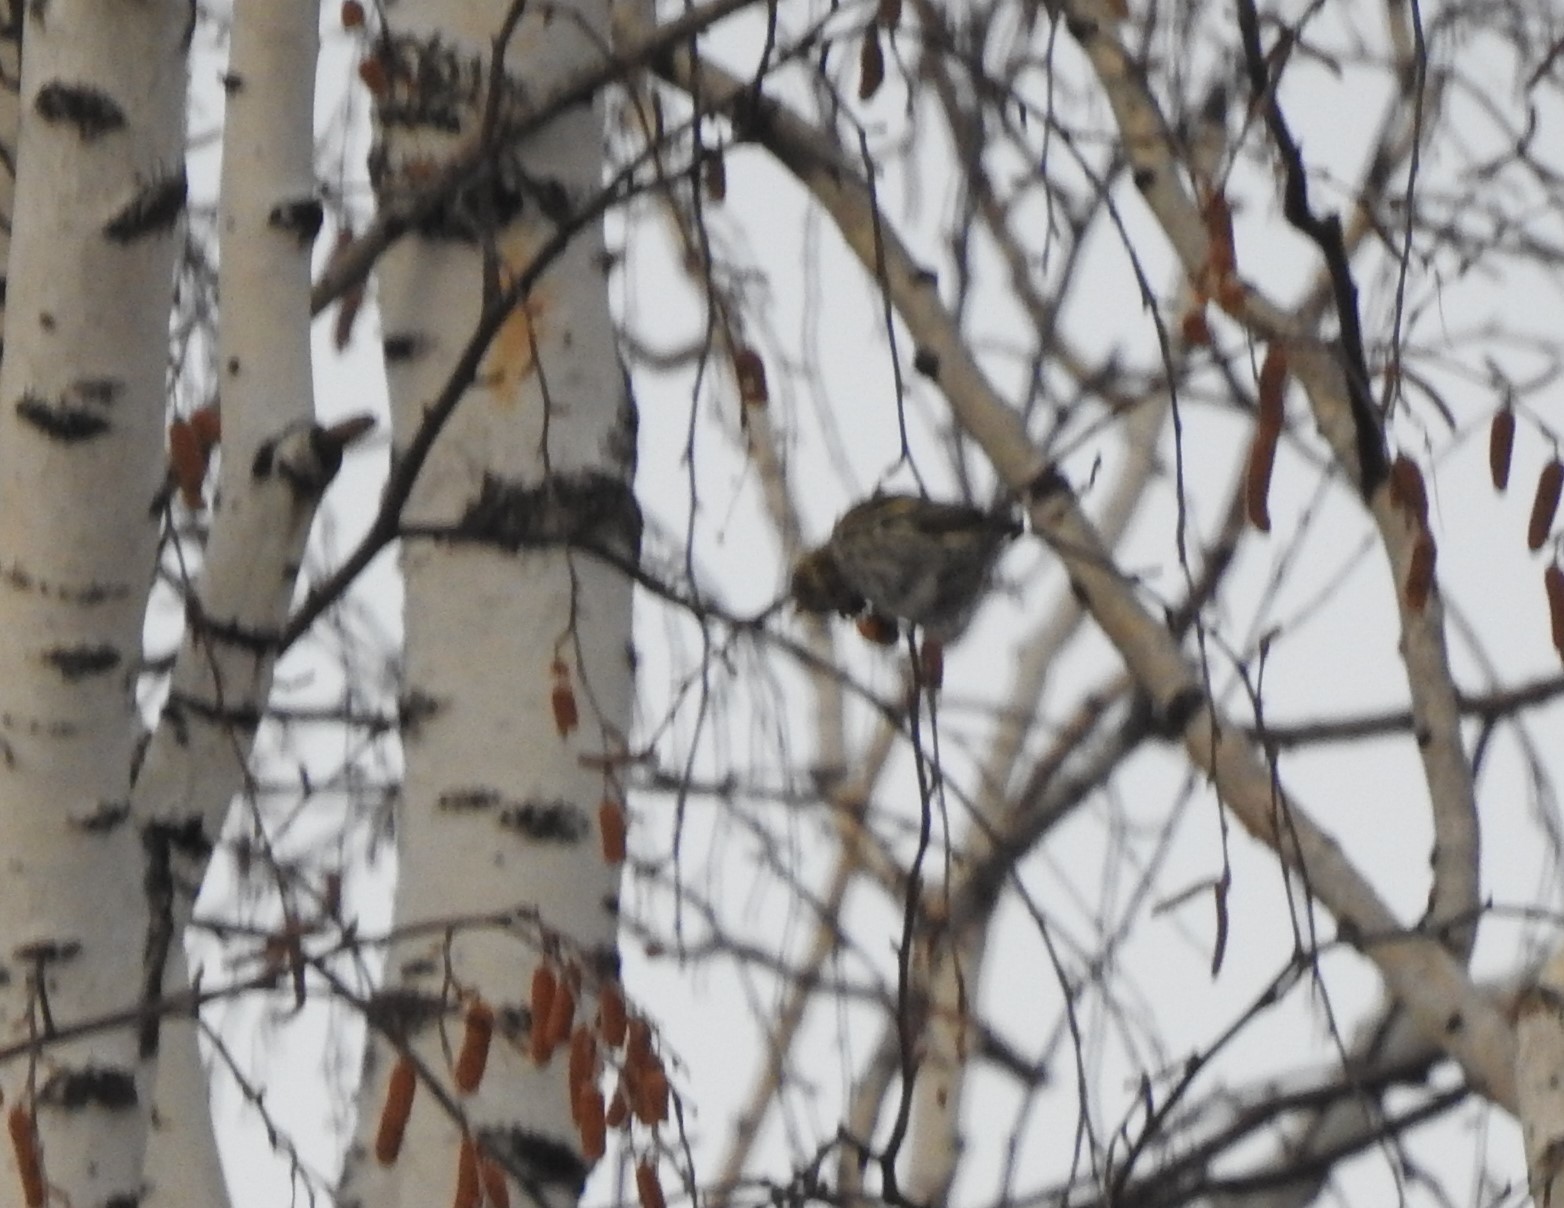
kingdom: Animalia
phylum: Chordata
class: Aves
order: Passeriformes
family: Fringillidae
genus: Spinus
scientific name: Spinus spinus
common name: Eurasian siskin
